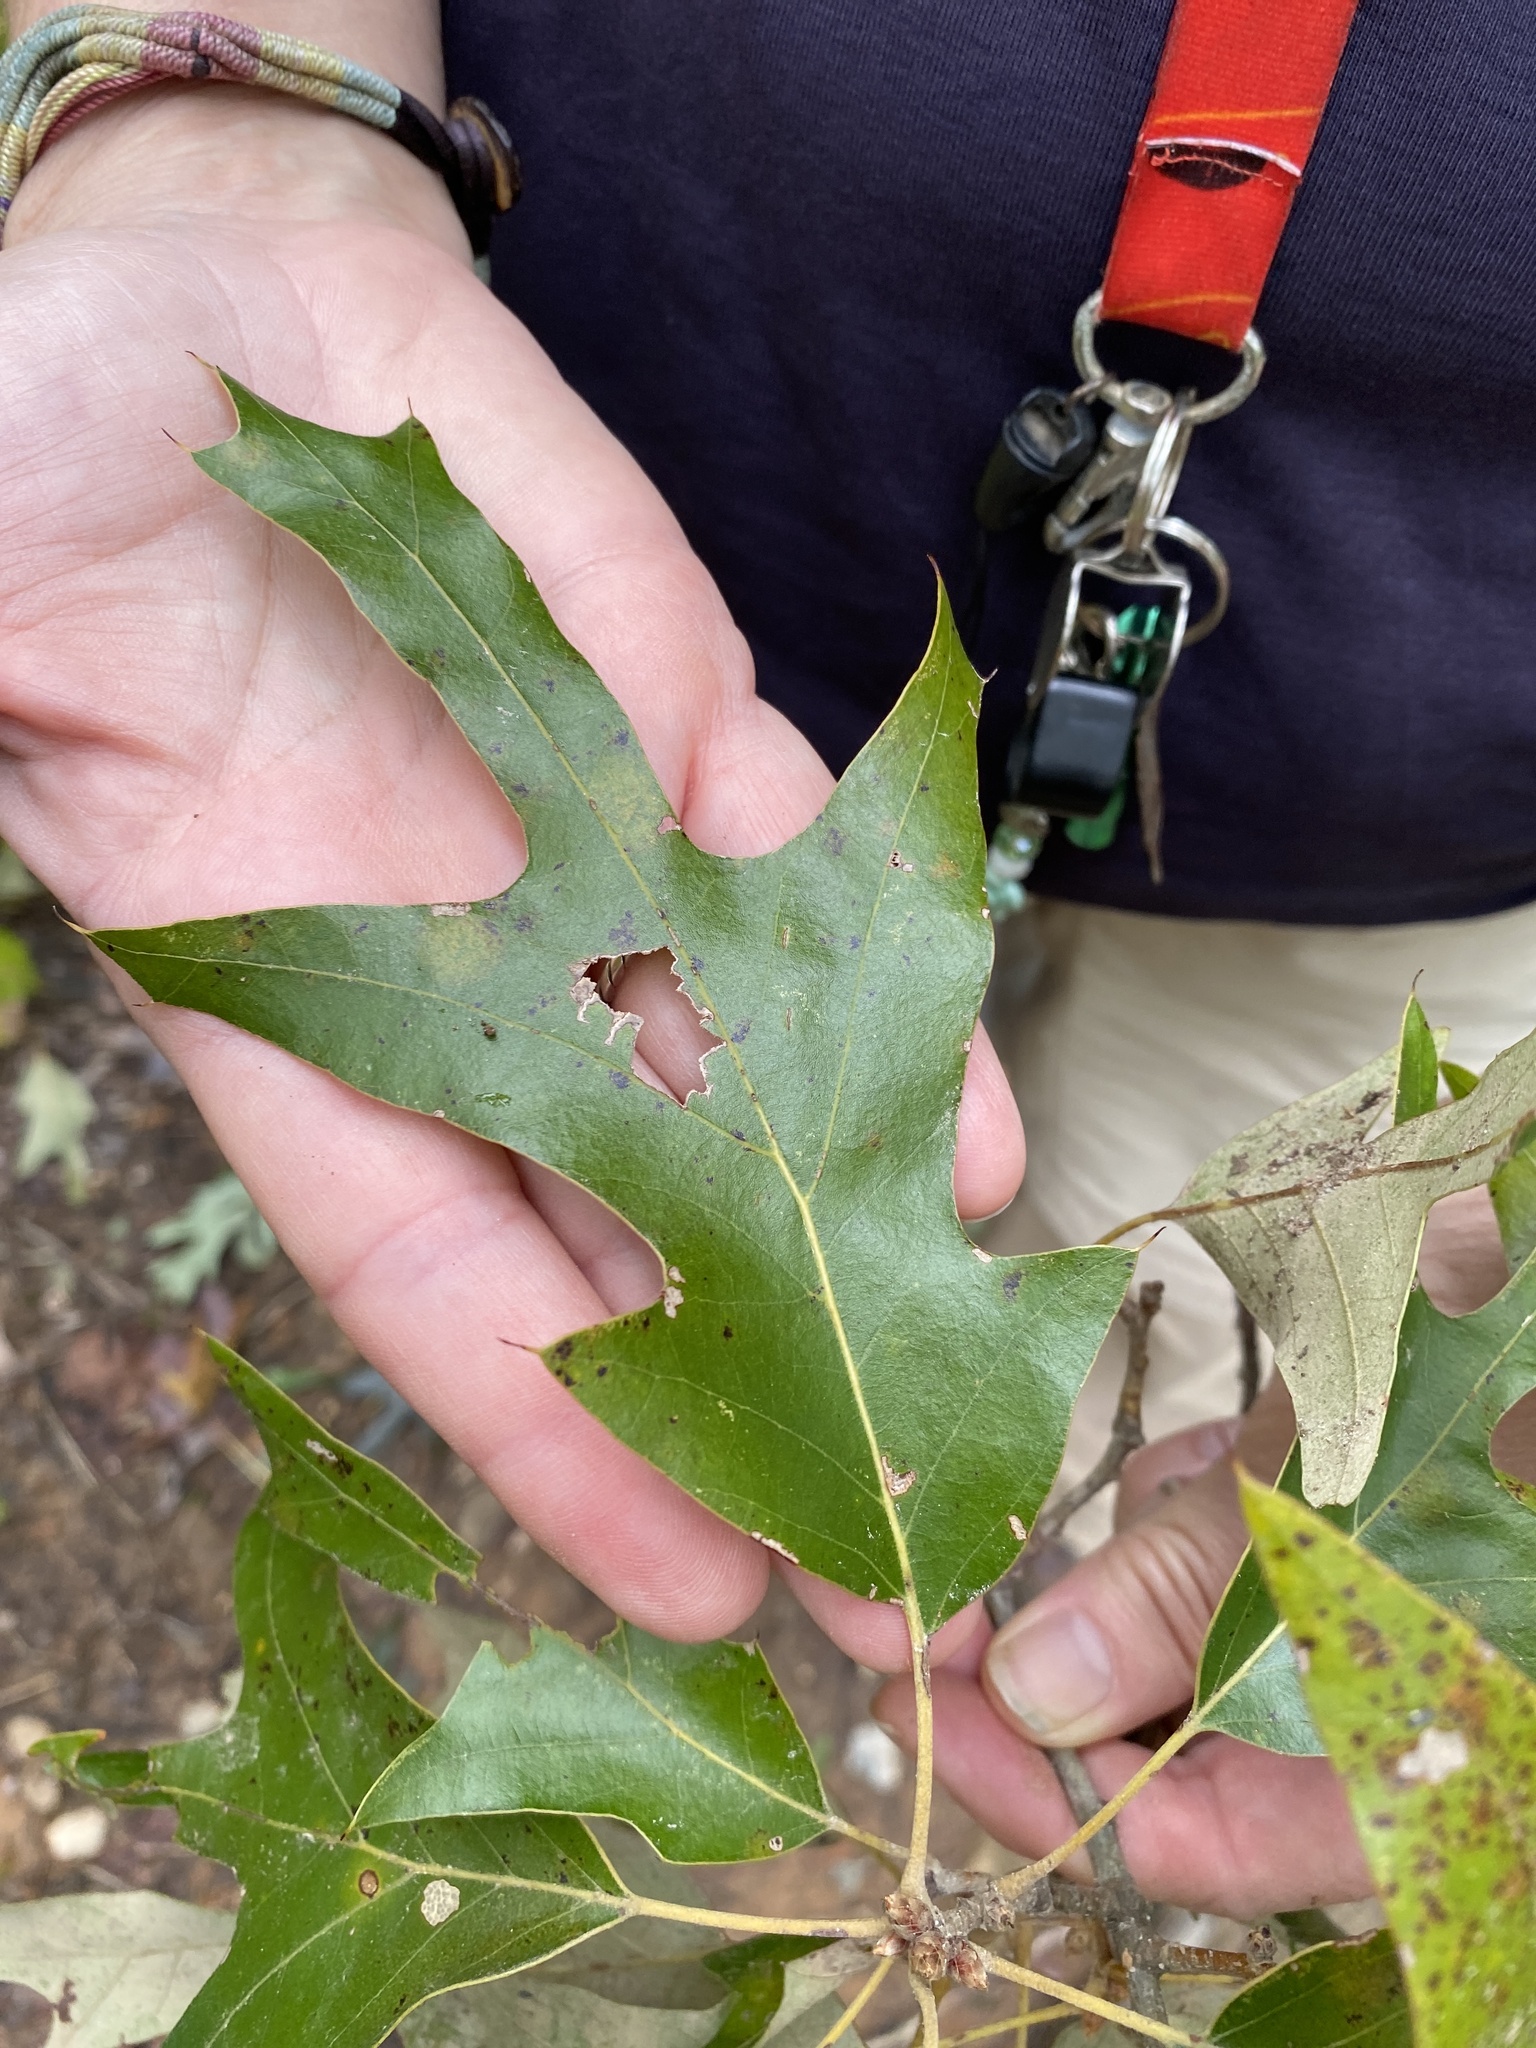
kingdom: Plantae
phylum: Tracheophyta
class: Magnoliopsida
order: Fagales
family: Fagaceae
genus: Quercus
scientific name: Quercus falcata
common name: Southern red oak
